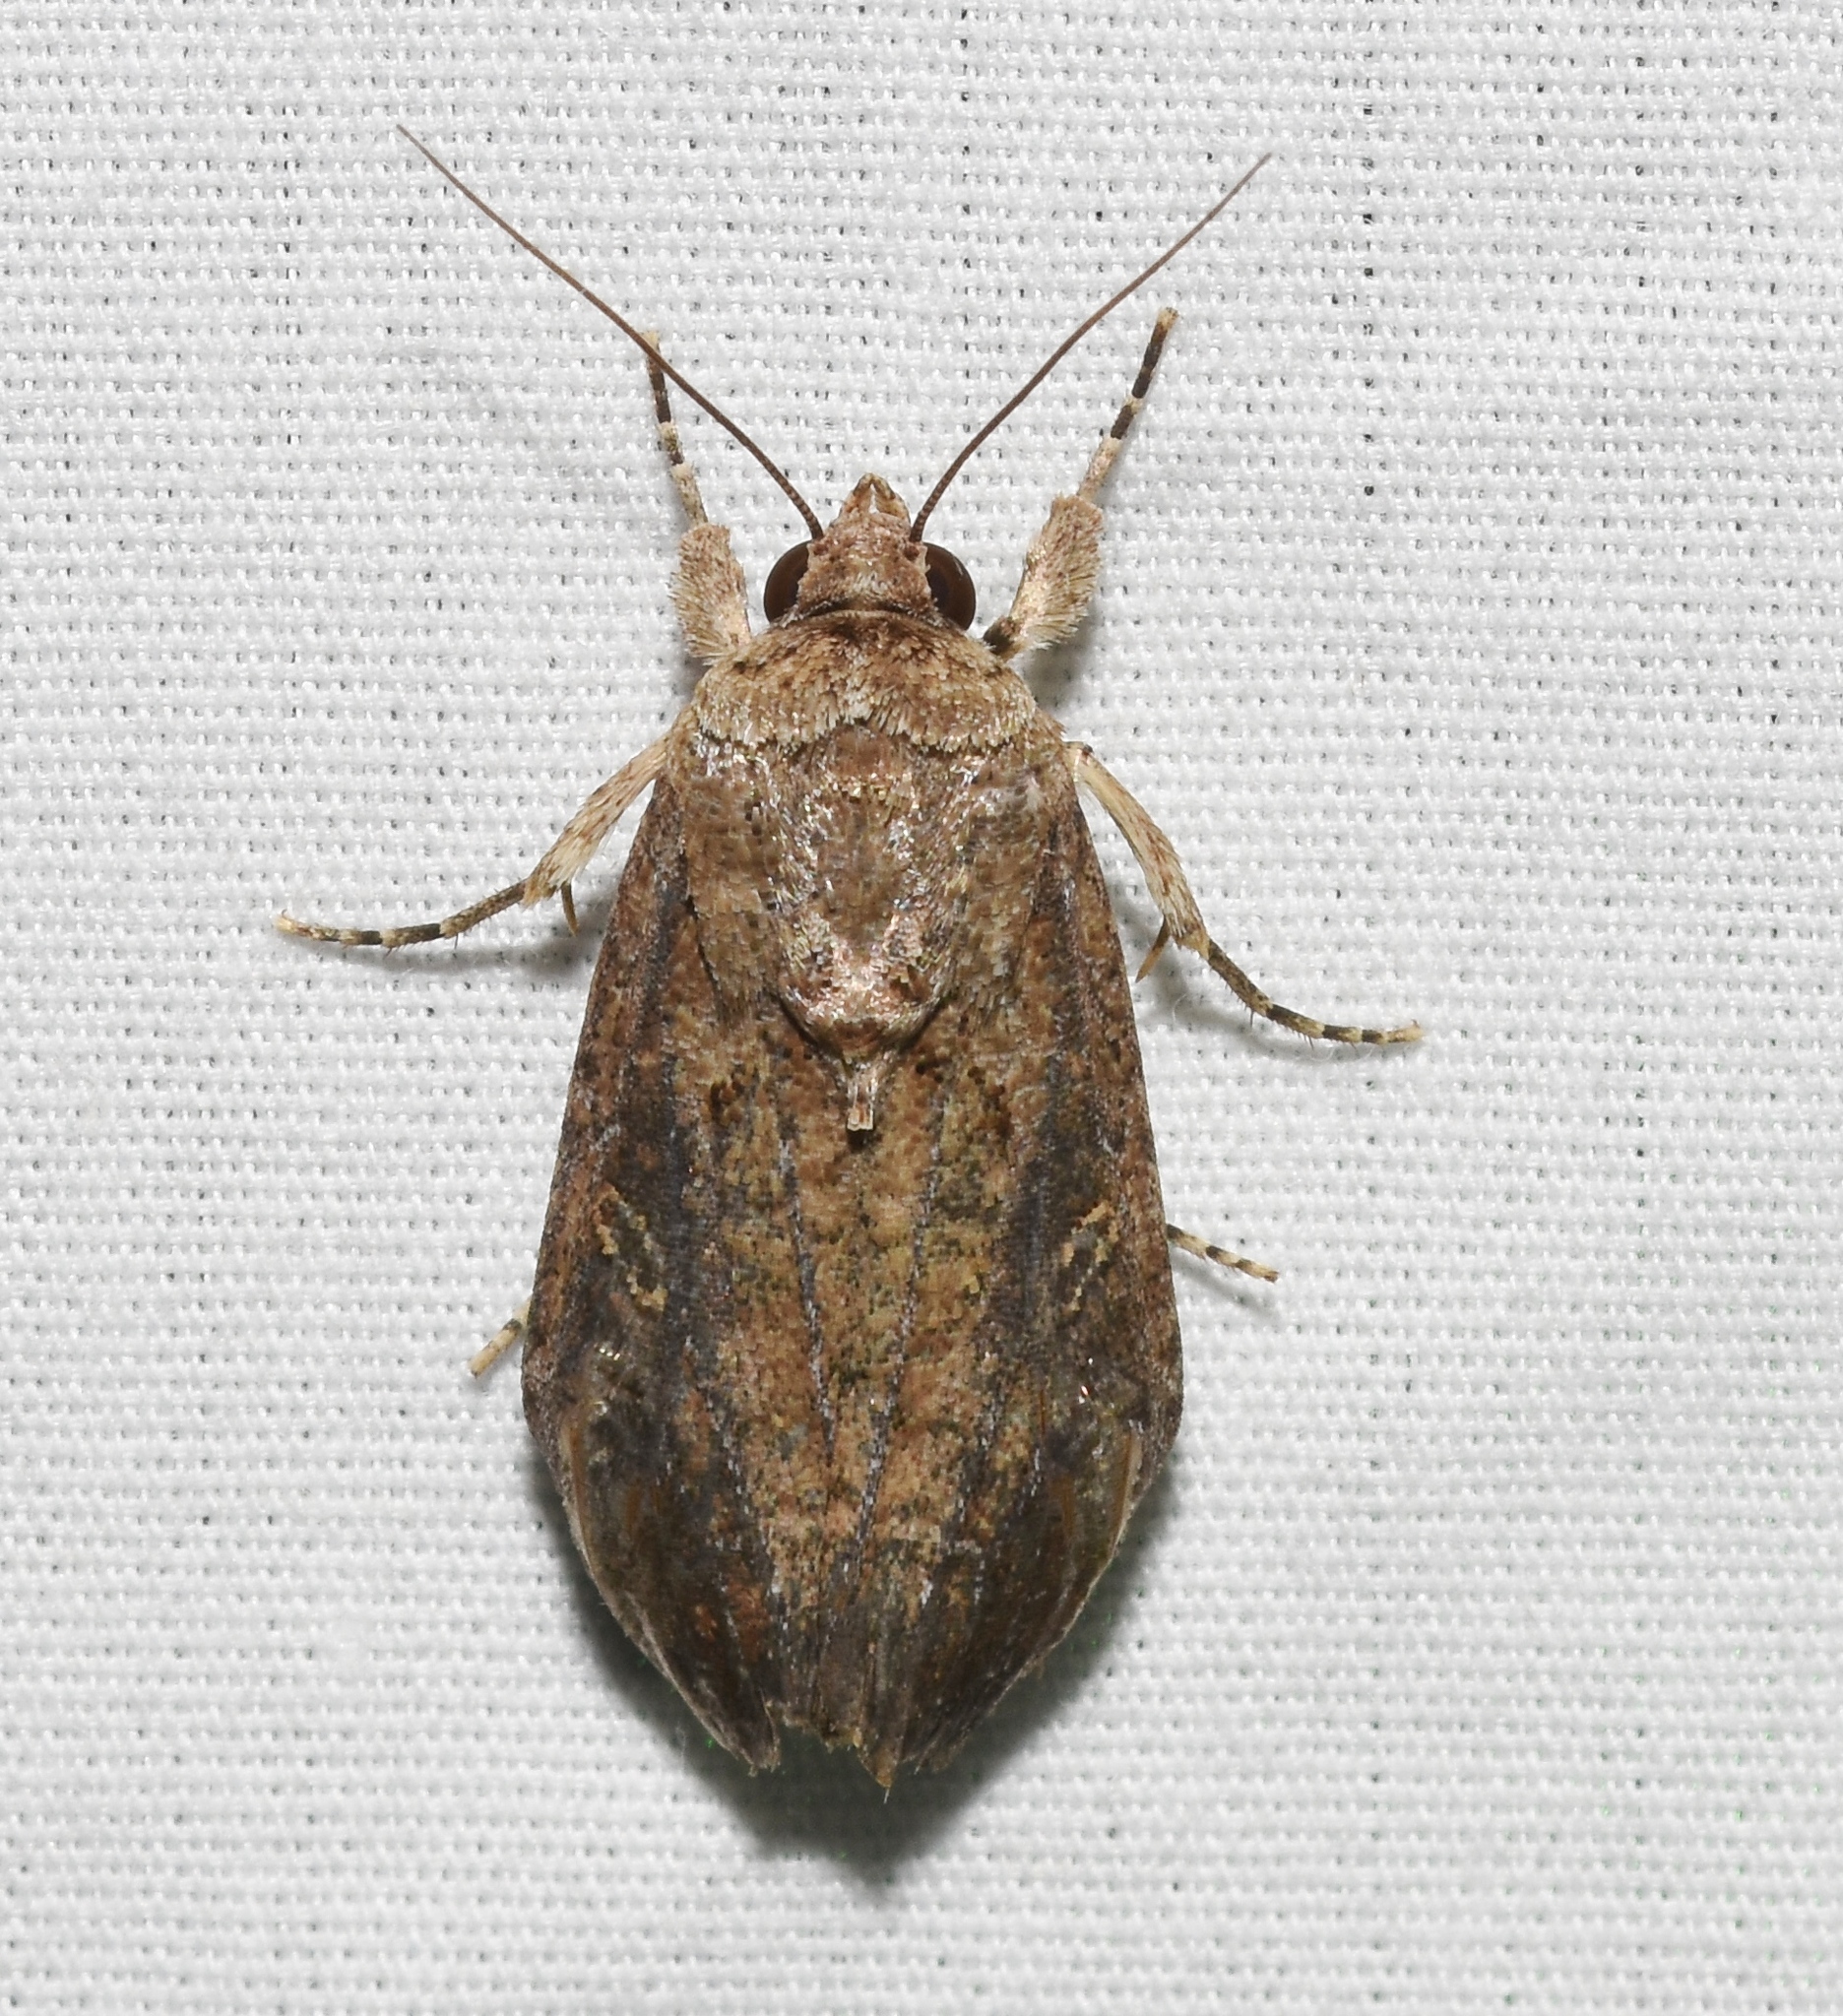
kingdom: Animalia
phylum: Arthropoda
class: Insecta
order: Lepidoptera
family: Noctuidae
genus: Spodoptera
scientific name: Spodoptera frugiperda
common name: Fall armyworm
